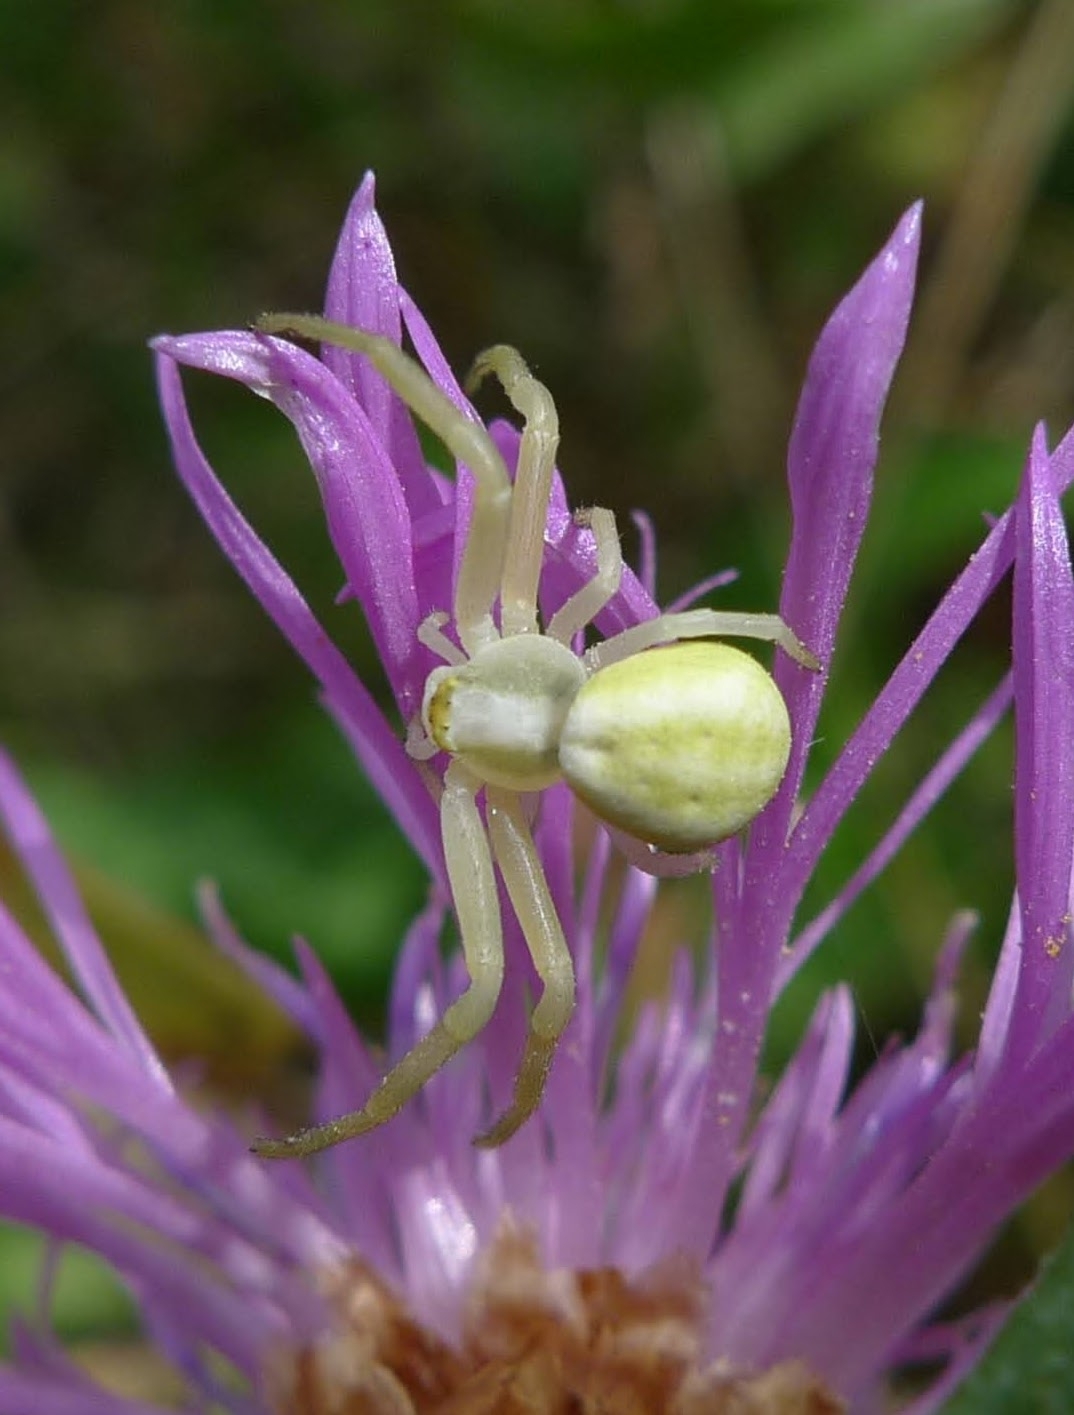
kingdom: Animalia
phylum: Arthropoda
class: Arachnida
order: Araneae
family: Thomisidae
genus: Misumena
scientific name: Misumena vatia
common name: Goldenrod crab spider
